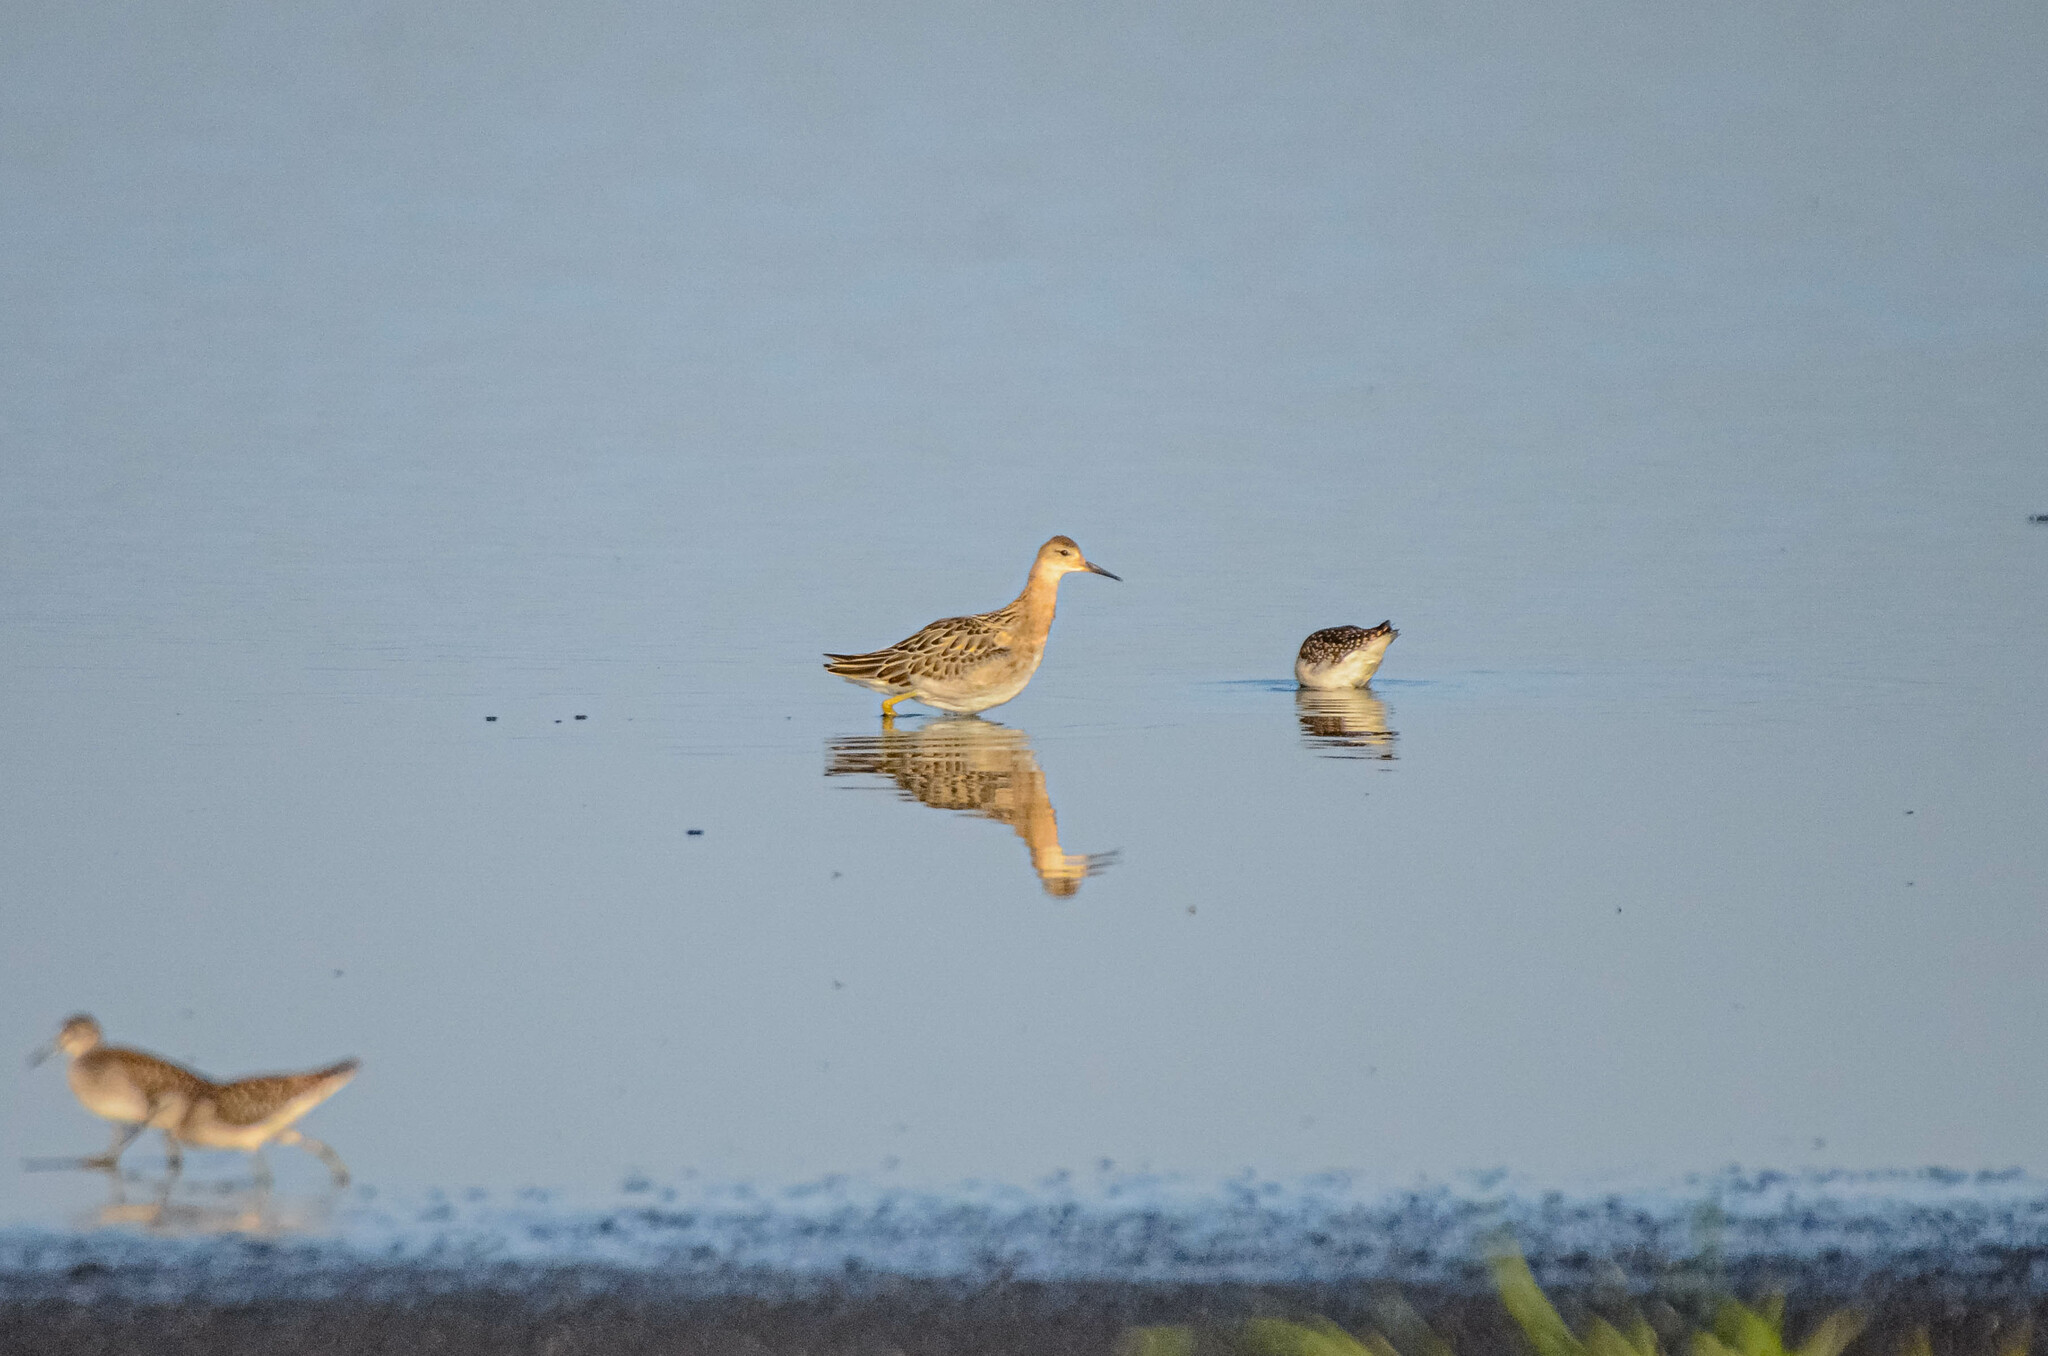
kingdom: Animalia
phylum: Chordata
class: Aves
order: Charadriiformes
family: Scolopacidae
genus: Calidris
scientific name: Calidris pugnax
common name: Ruff
